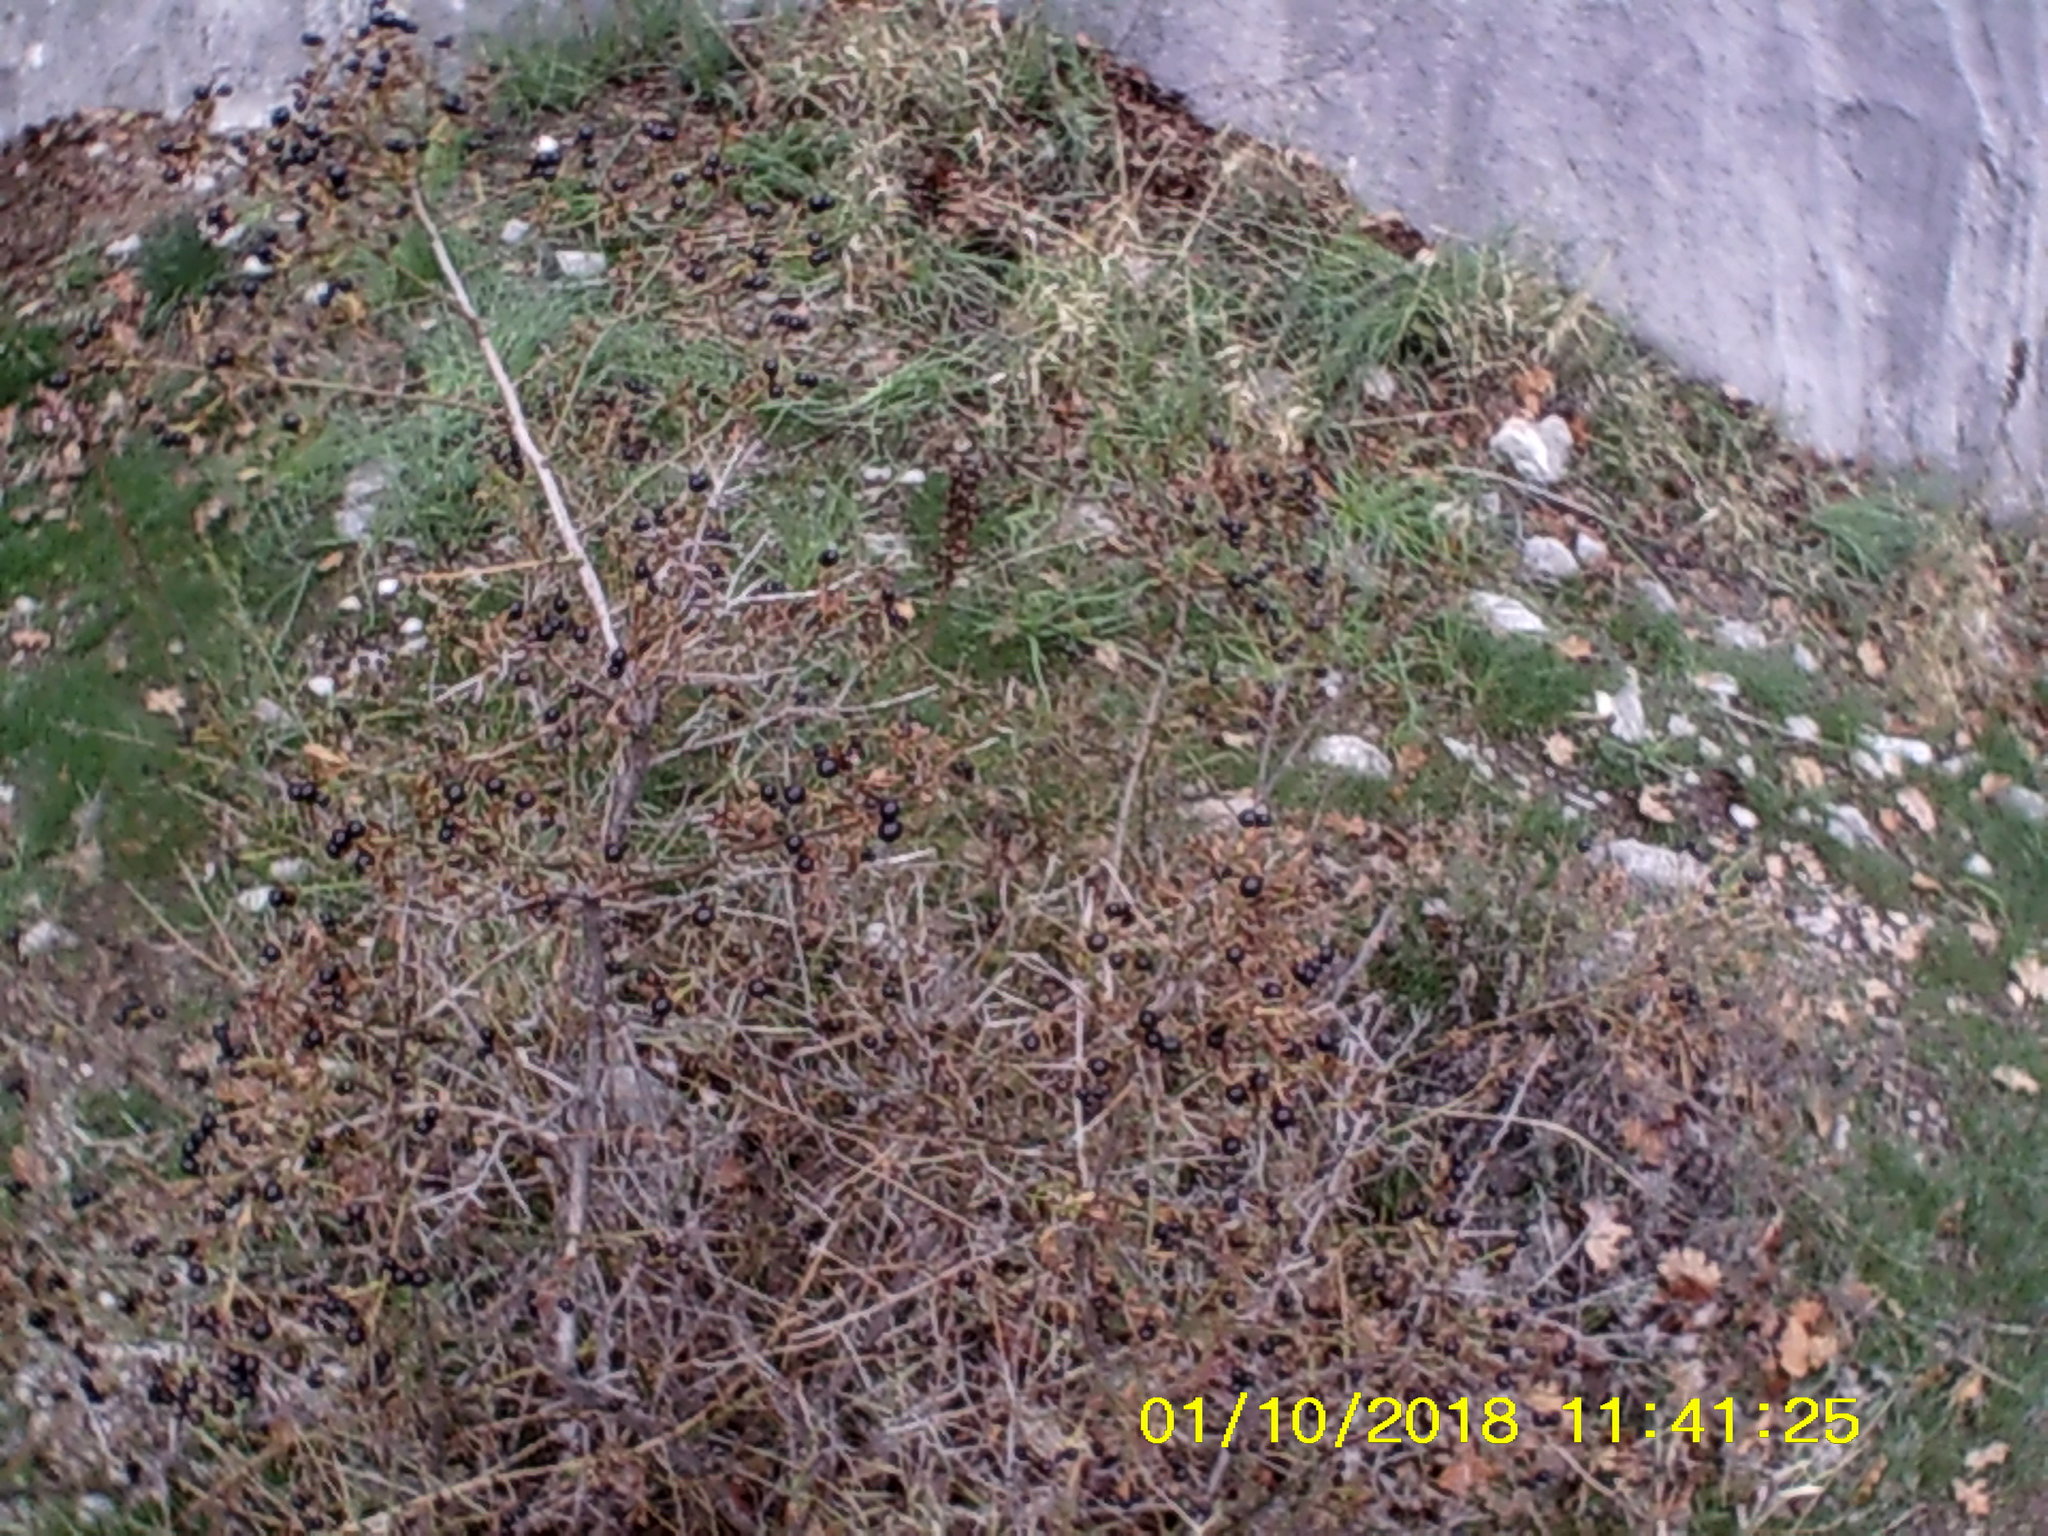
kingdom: Plantae
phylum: Tracheophyta
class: Magnoliopsida
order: Lamiales
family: Oleaceae
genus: Chrysojasminum
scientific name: Chrysojasminum fruticans
